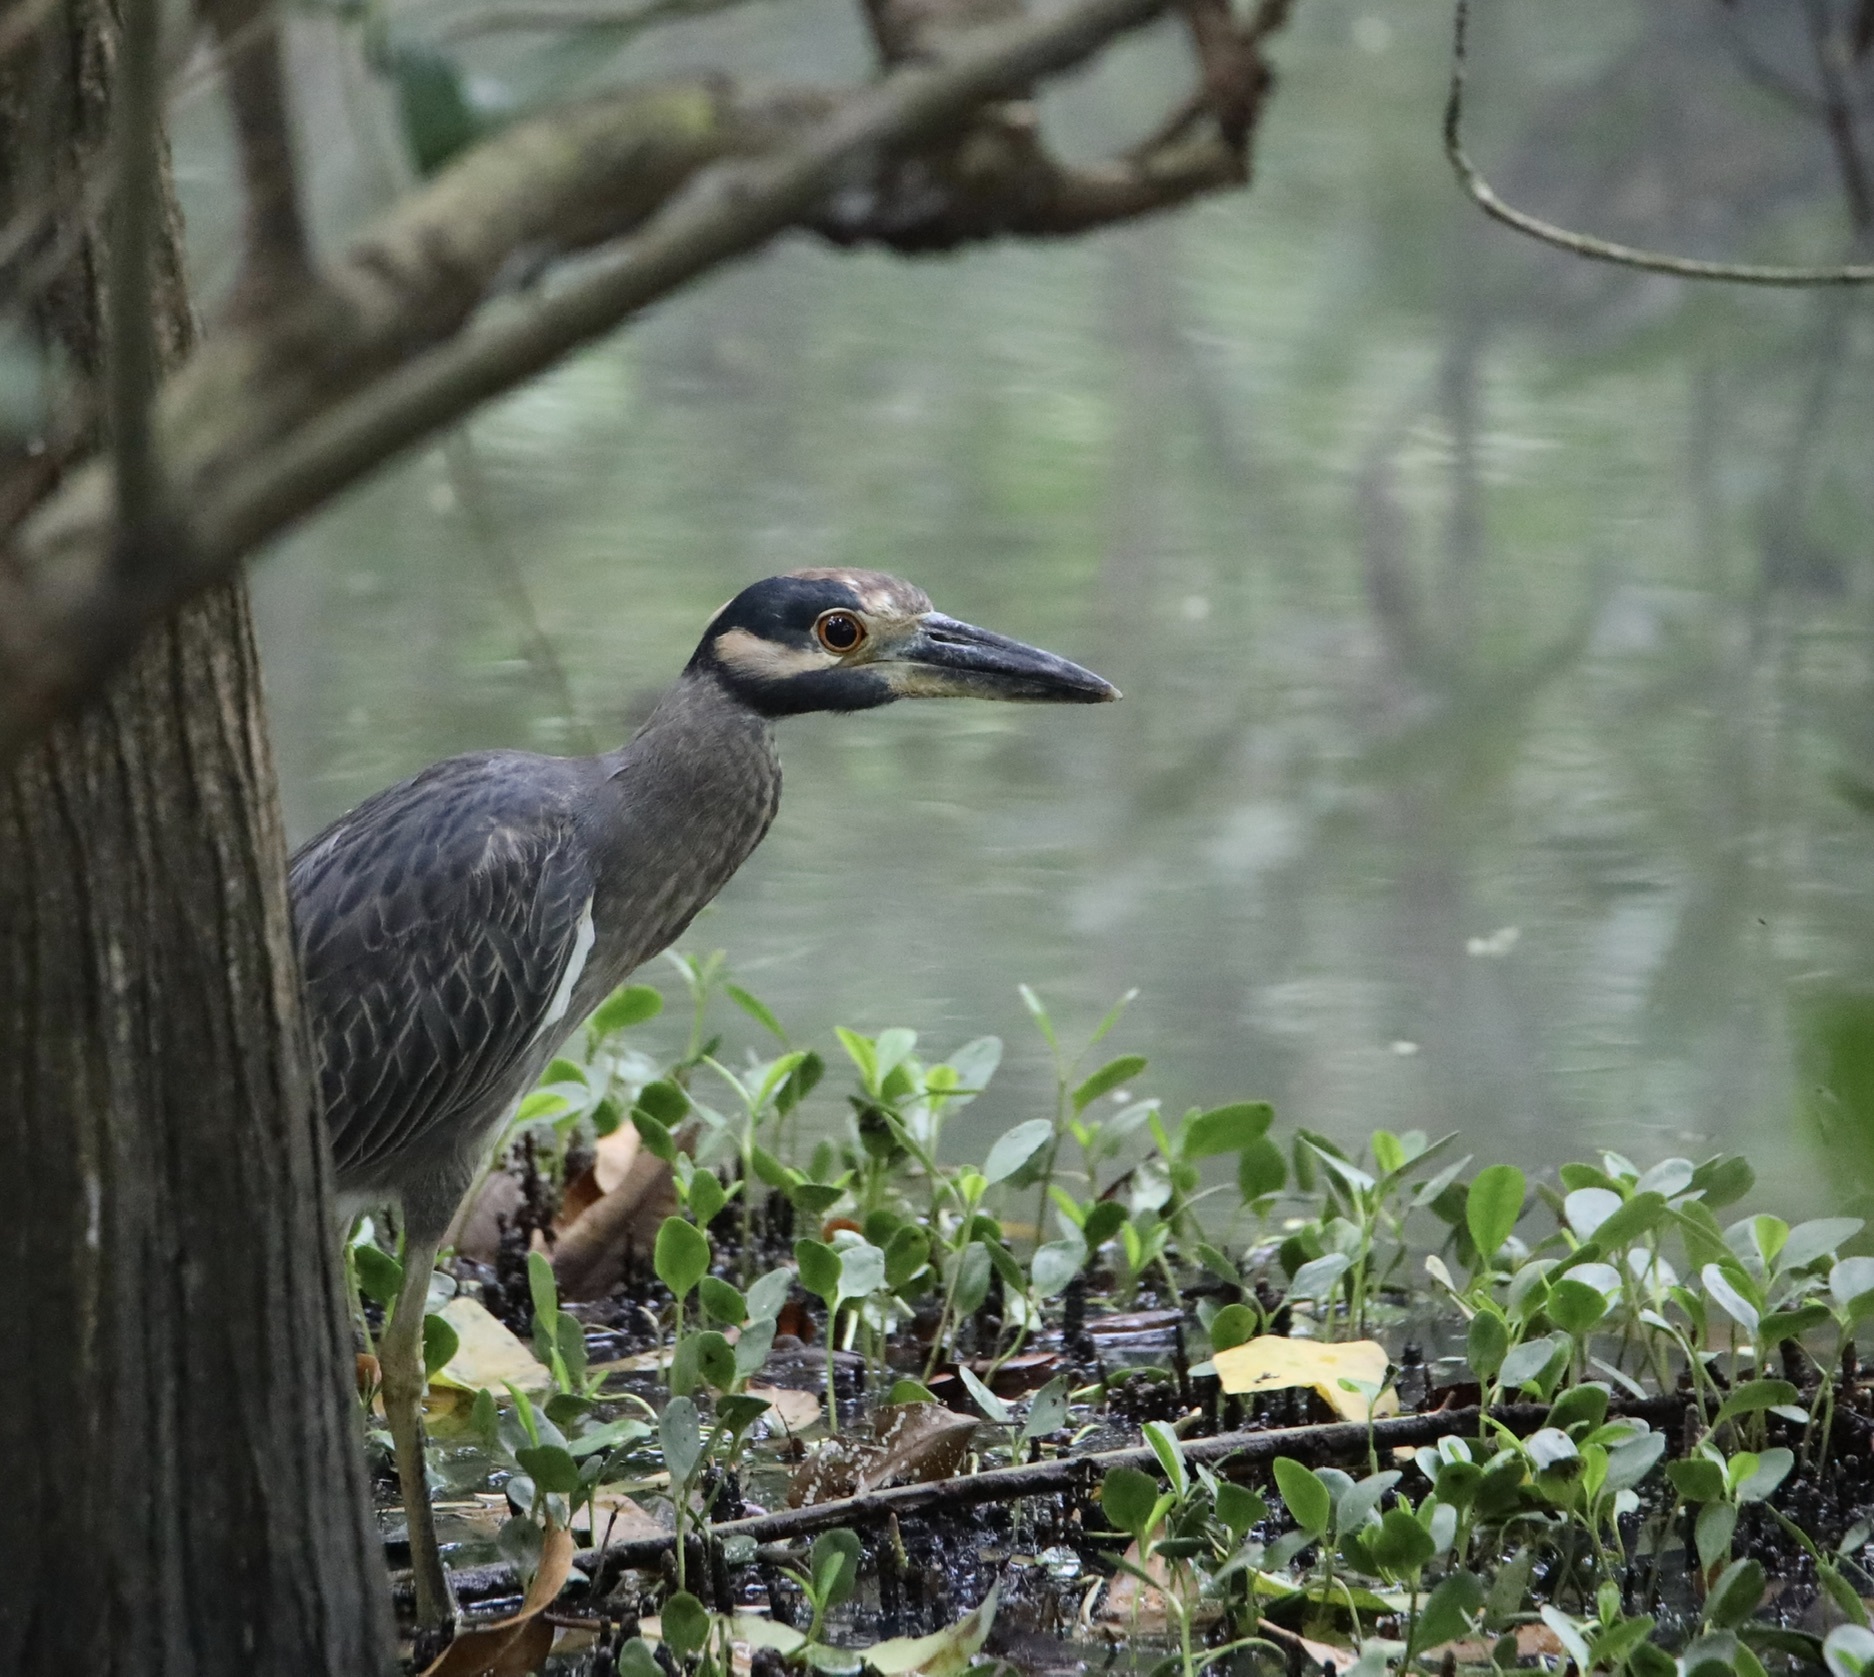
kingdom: Animalia
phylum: Chordata
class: Aves
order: Pelecaniformes
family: Ardeidae
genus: Nyctanassa
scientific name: Nyctanassa violacea
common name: Yellow-crowned night heron
